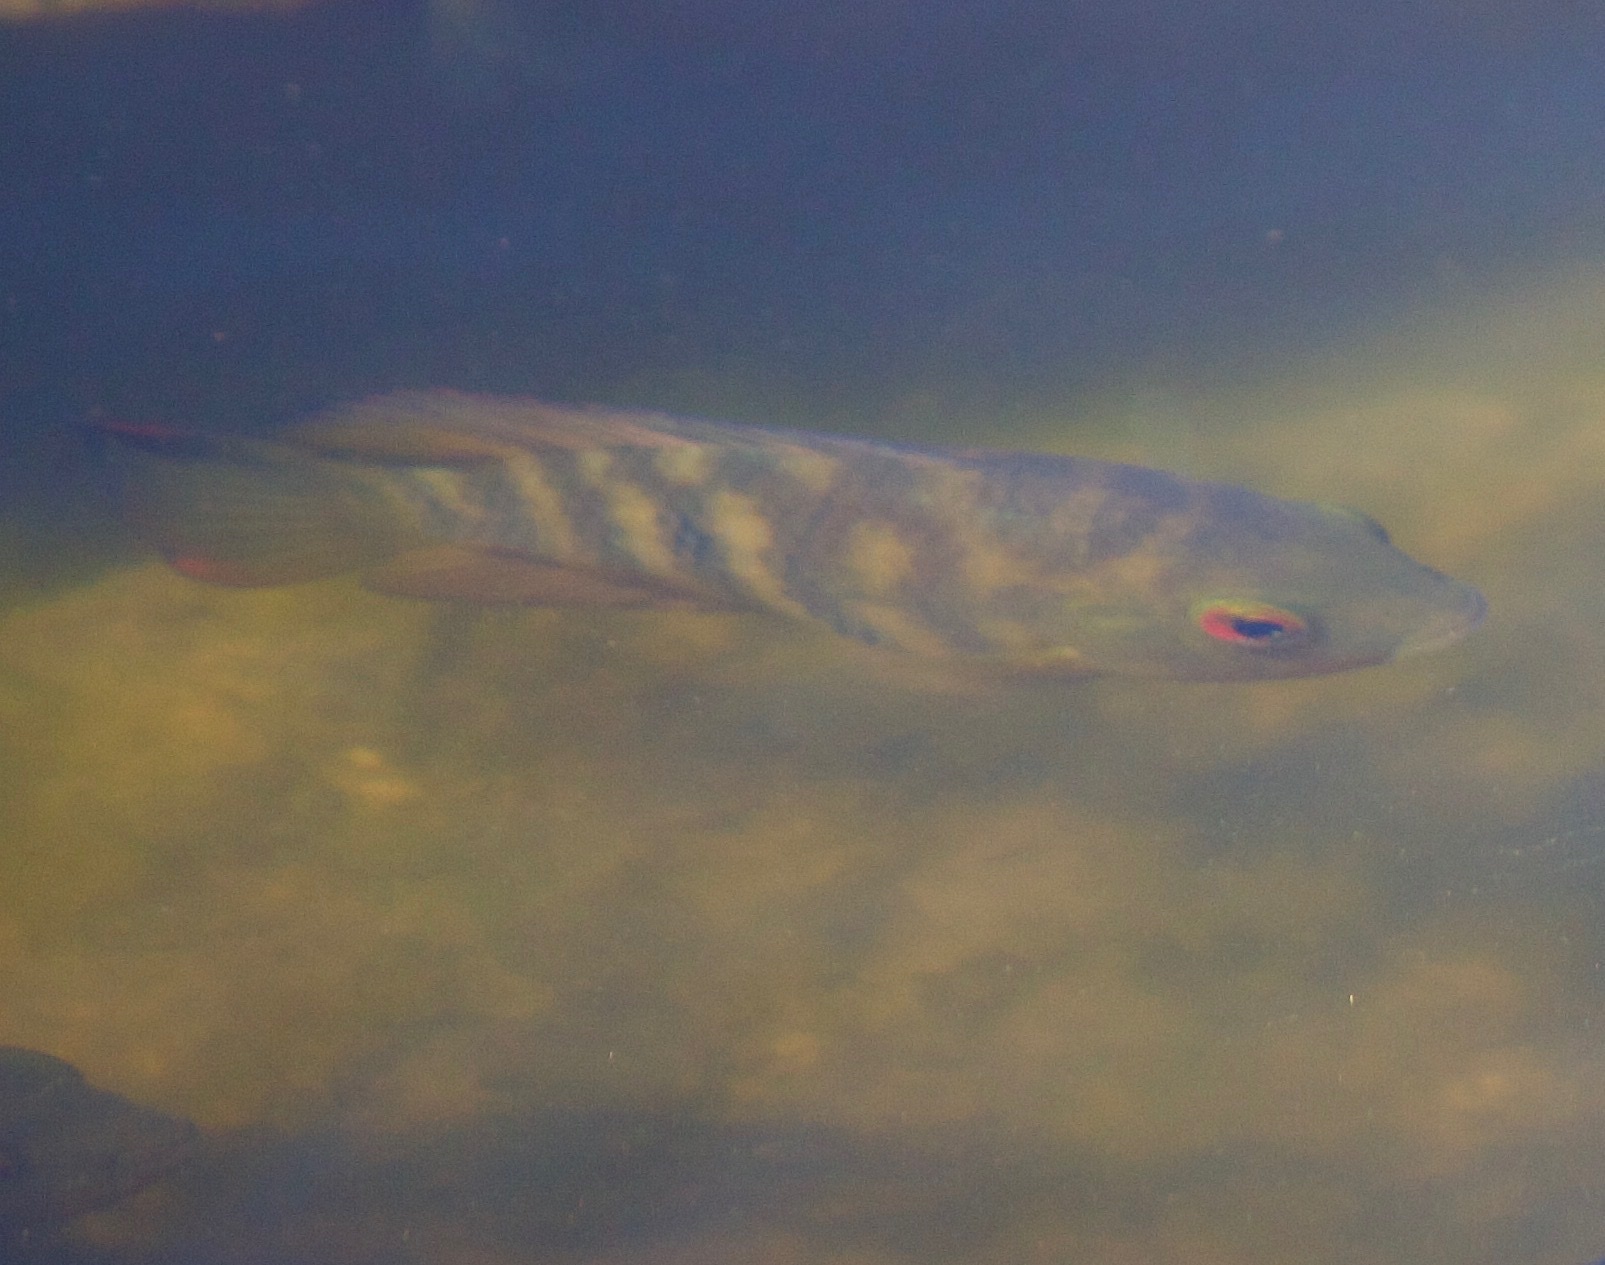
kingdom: Animalia
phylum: Chordata
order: Perciformes
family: Cichlidae
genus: Australoheros
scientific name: Australoheros facetus
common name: Chameleon cichlid
